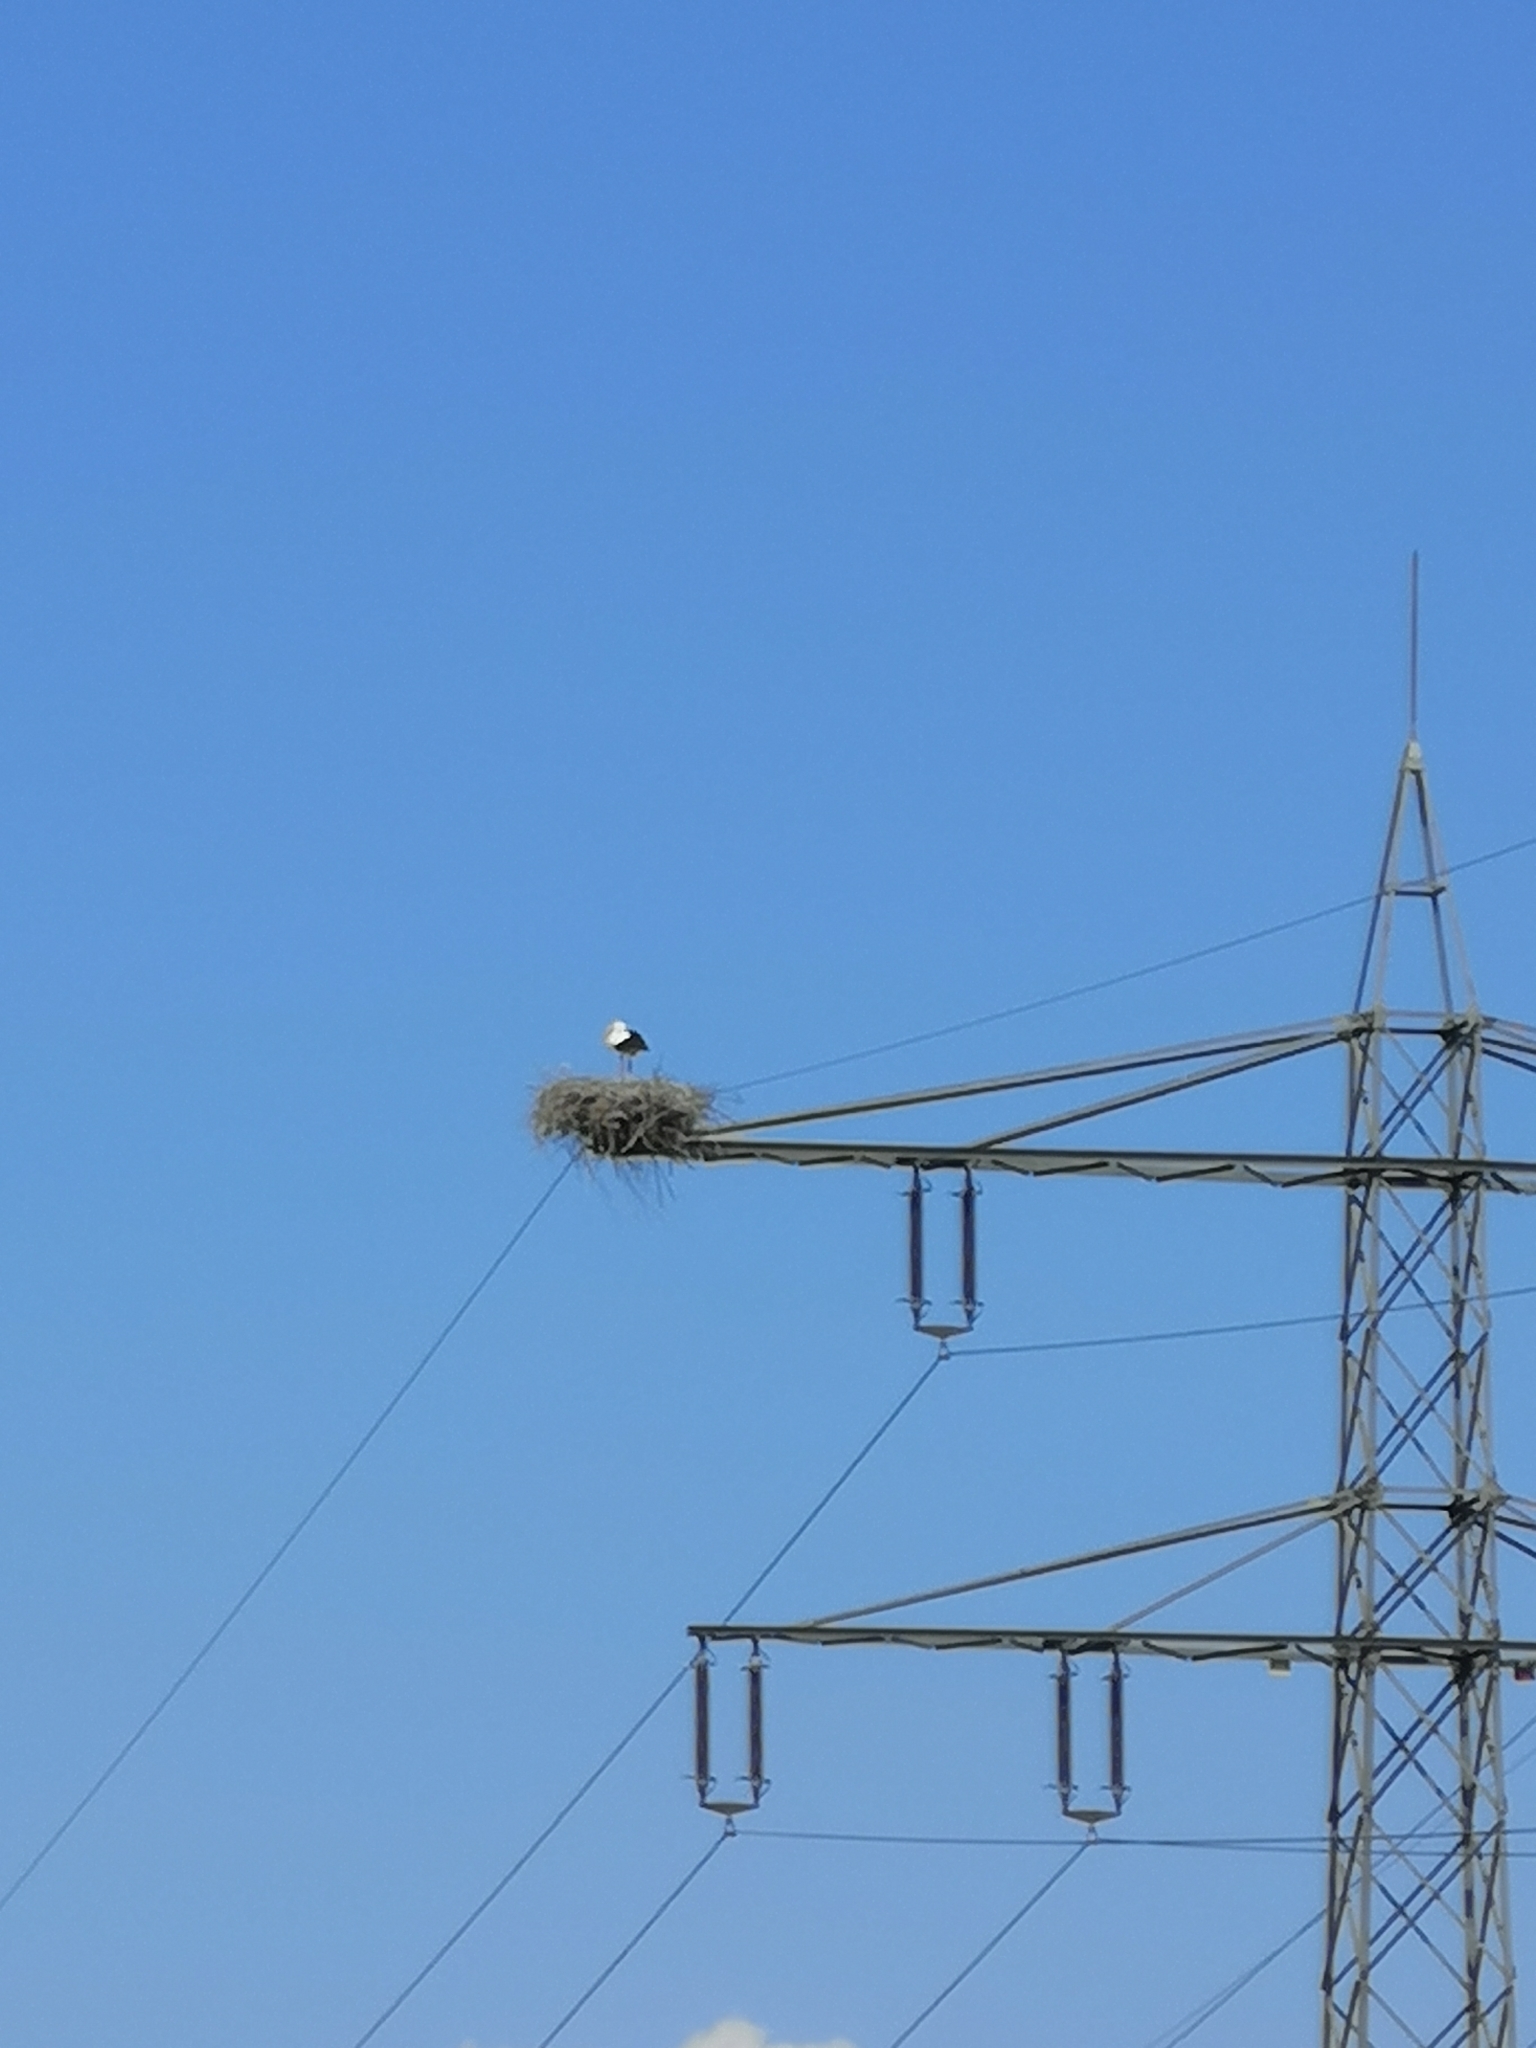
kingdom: Animalia
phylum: Chordata
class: Aves
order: Ciconiiformes
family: Ciconiidae
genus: Ciconia
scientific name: Ciconia ciconia
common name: White stork
